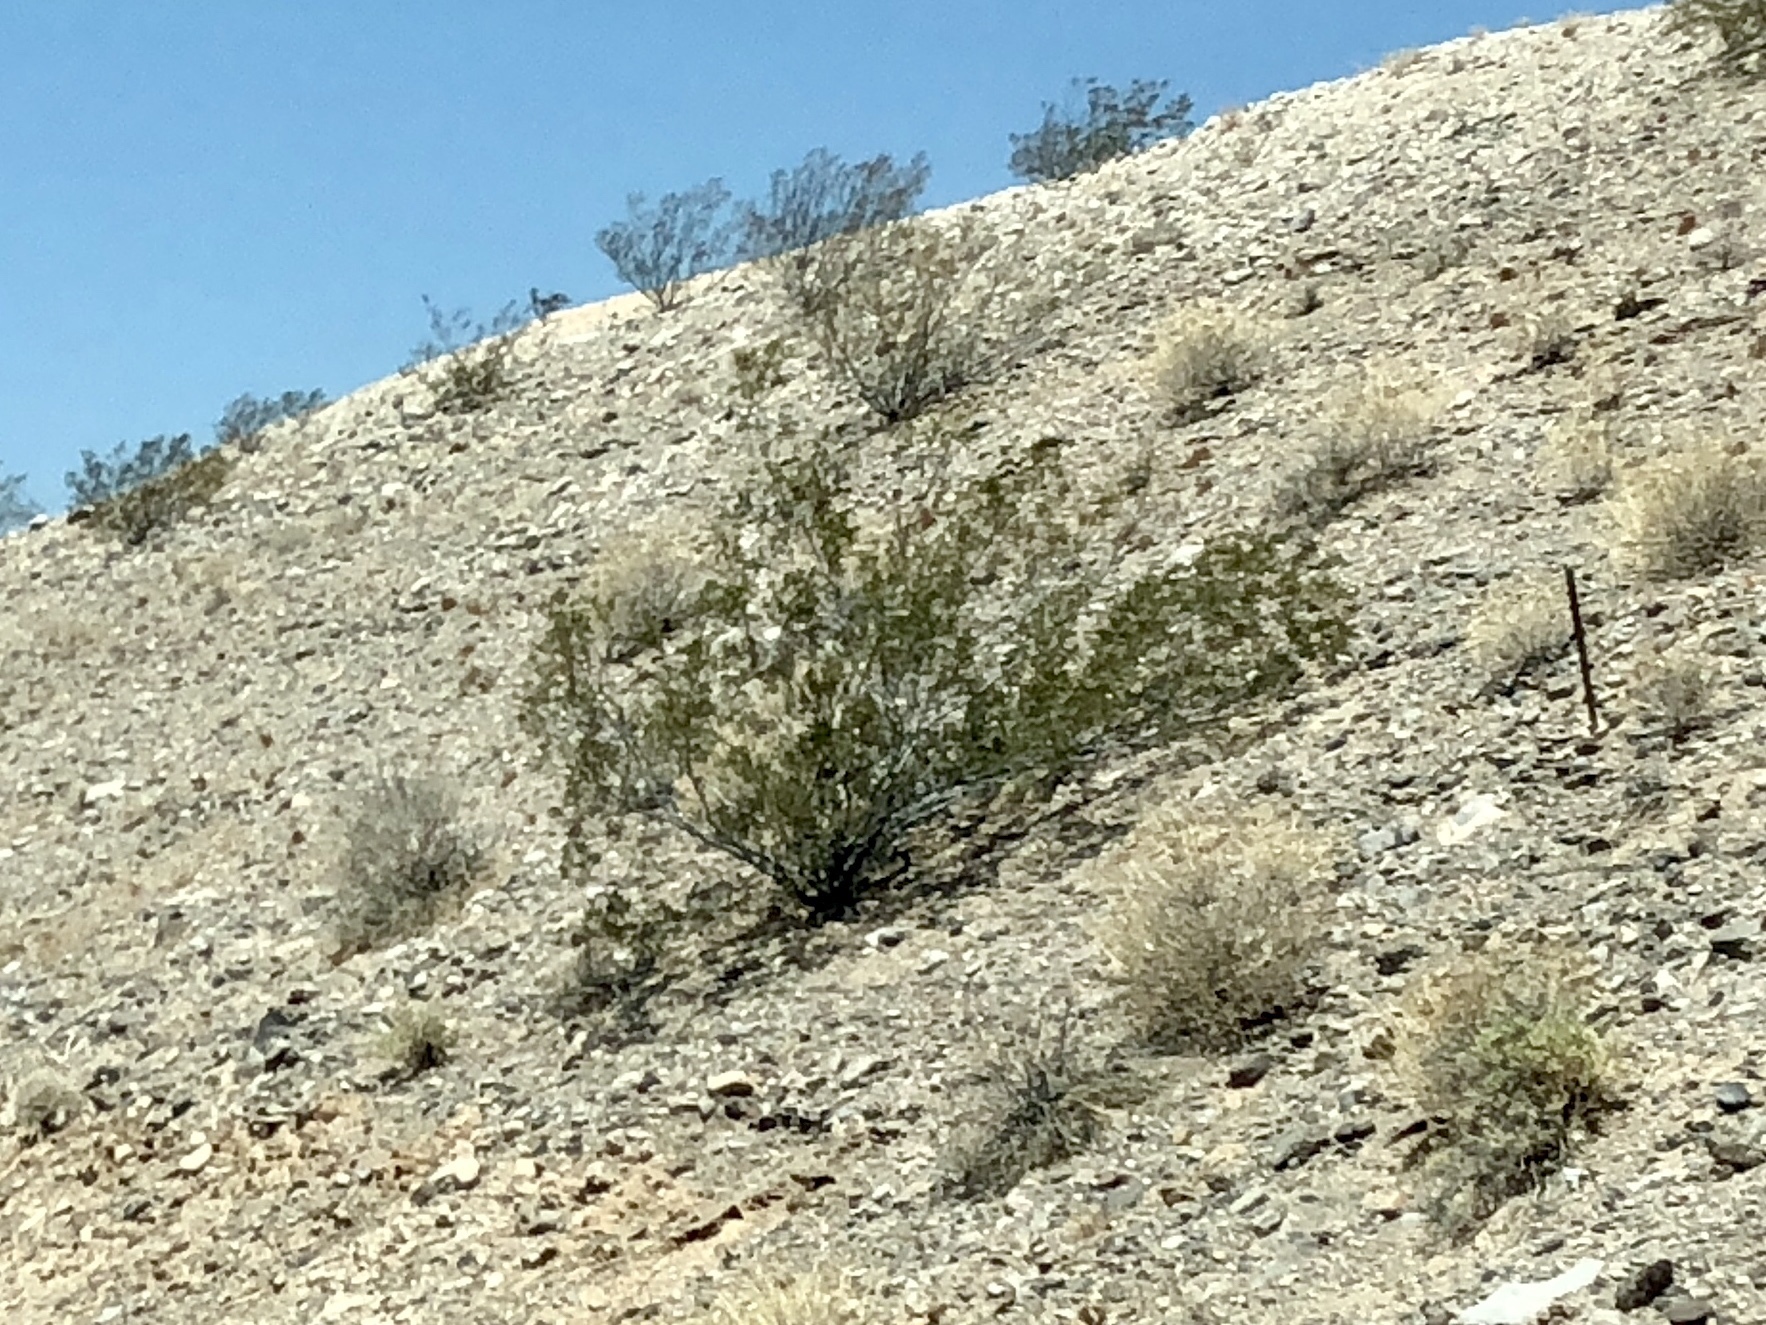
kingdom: Plantae
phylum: Tracheophyta
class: Magnoliopsida
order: Zygophyllales
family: Zygophyllaceae
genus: Larrea
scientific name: Larrea tridentata
